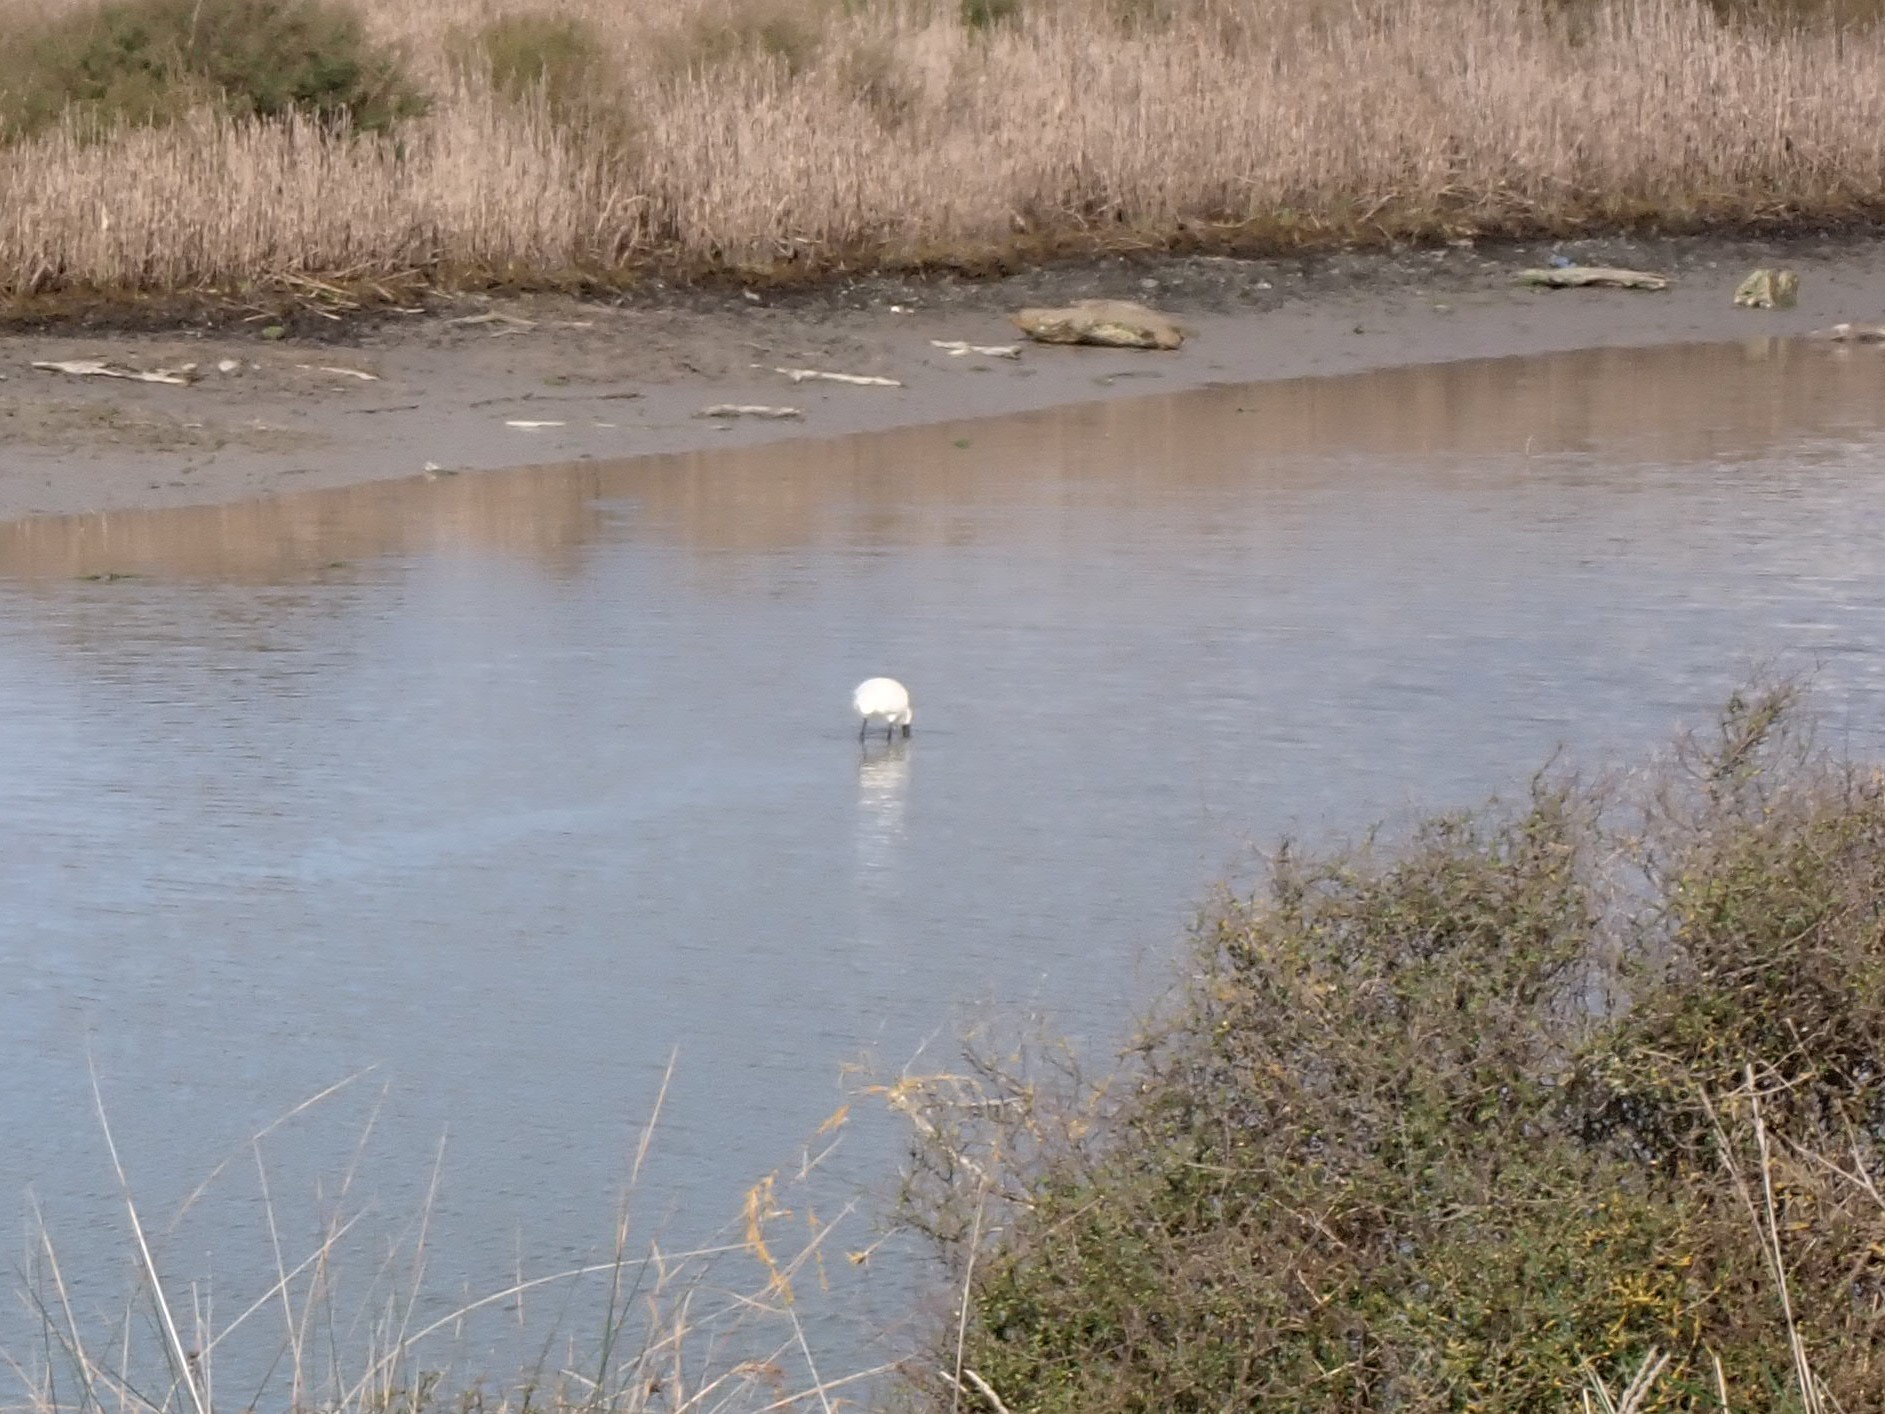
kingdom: Animalia
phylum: Chordata
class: Aves
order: Pelecaniformes
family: Threskiornithidae
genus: Platalea
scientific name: Platalea regia
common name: Royal spoonbill
